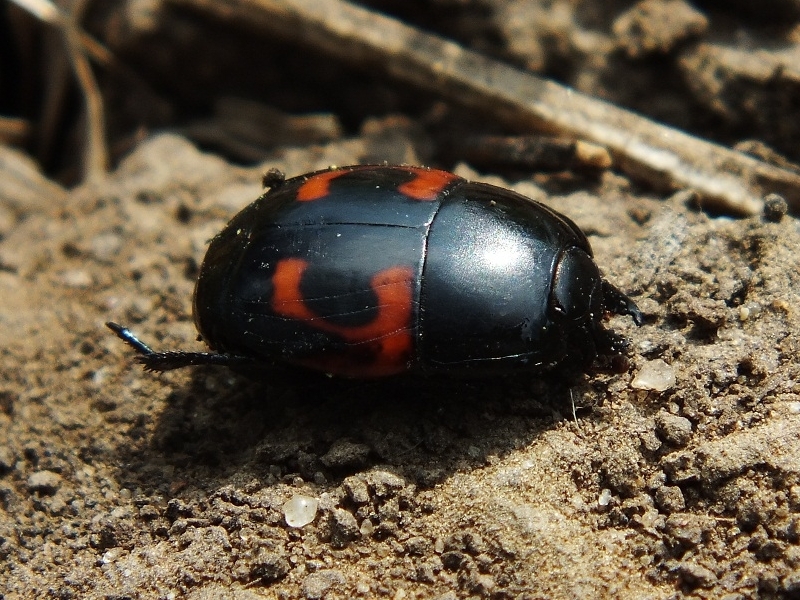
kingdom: Animalia
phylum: Arthropoda
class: Insecta
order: Coleoptera
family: Histeridae
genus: Hister
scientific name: Hister quadrimaculatus
